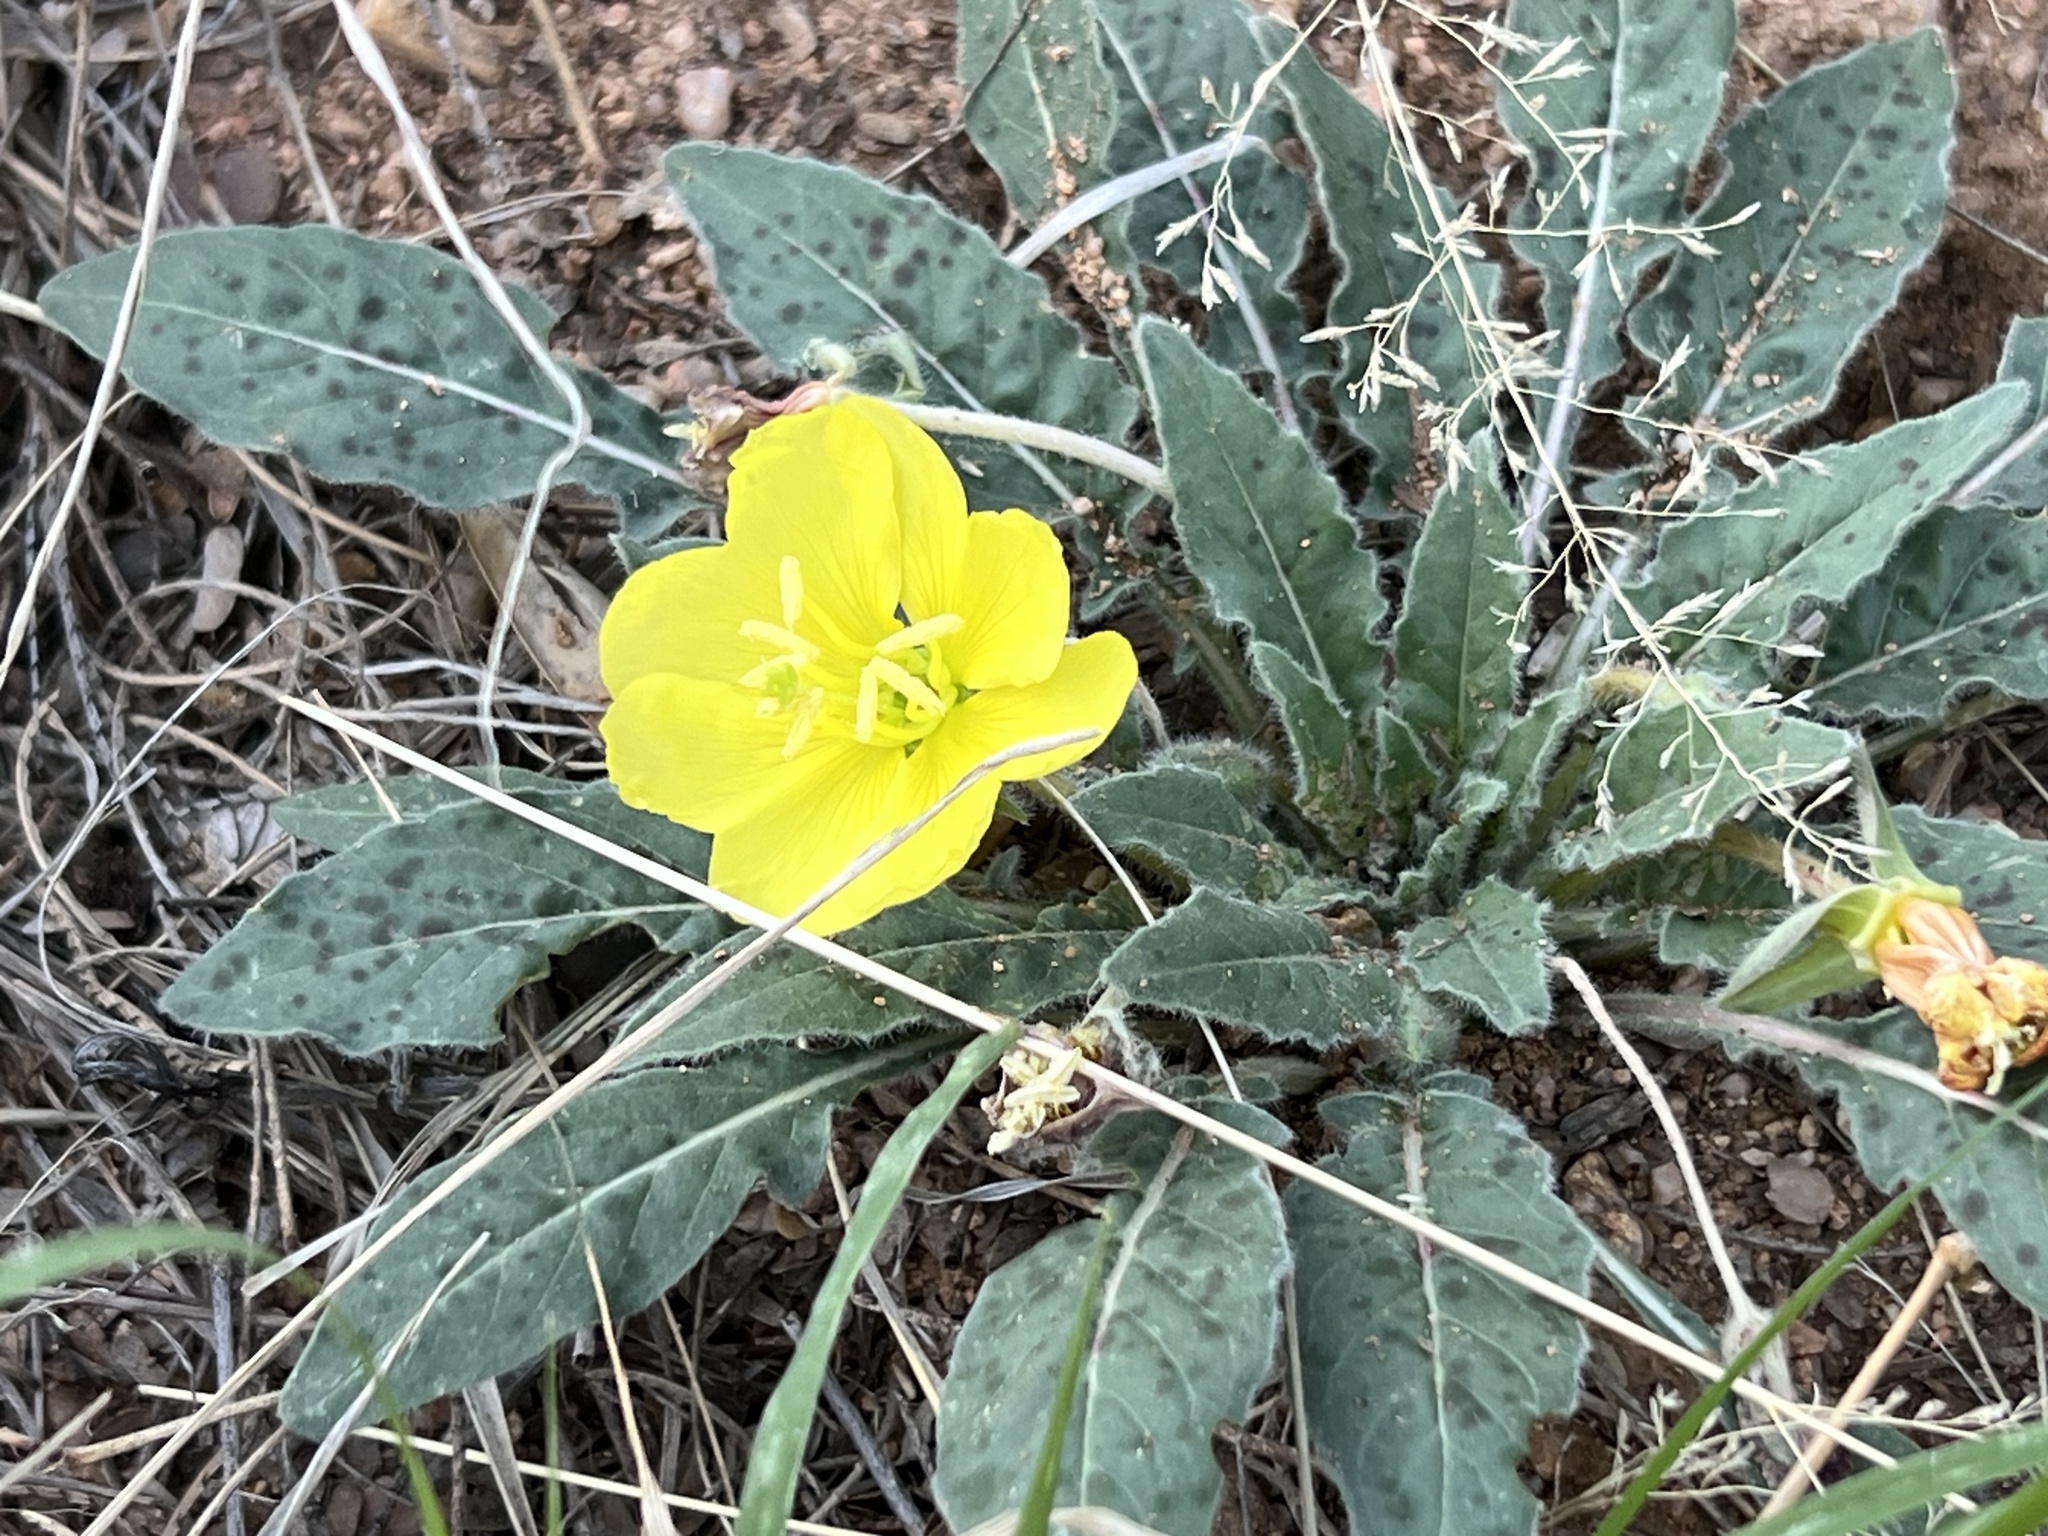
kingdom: Plantae
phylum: Tracheophyta
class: Magnoliopsida
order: Myrtales
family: Onagraceae
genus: Oenothera
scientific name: Oenothera primiveris
